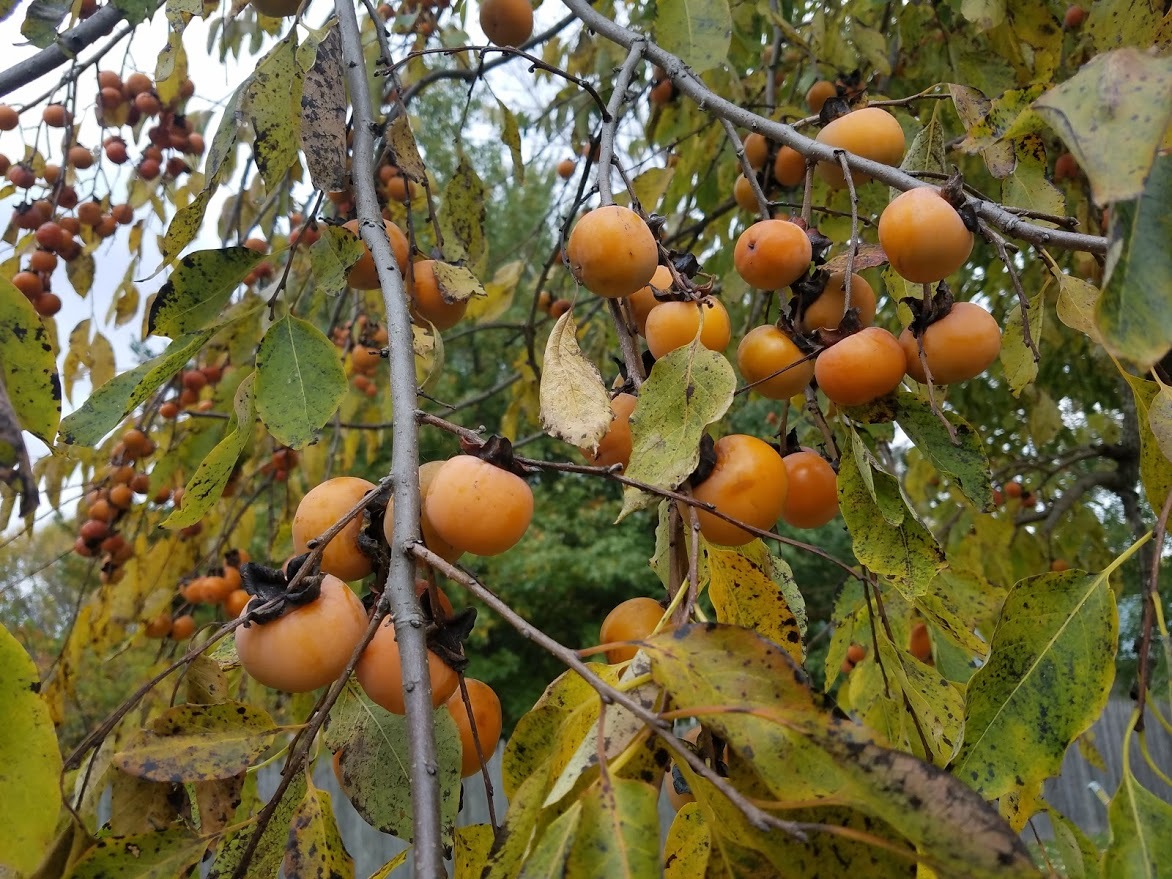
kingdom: Plantae
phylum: Tracheophyta
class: Magnoliopsida
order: Ericales
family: Ebenaceae
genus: Diospyros
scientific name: Diospyros virginiana
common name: Persimmon
